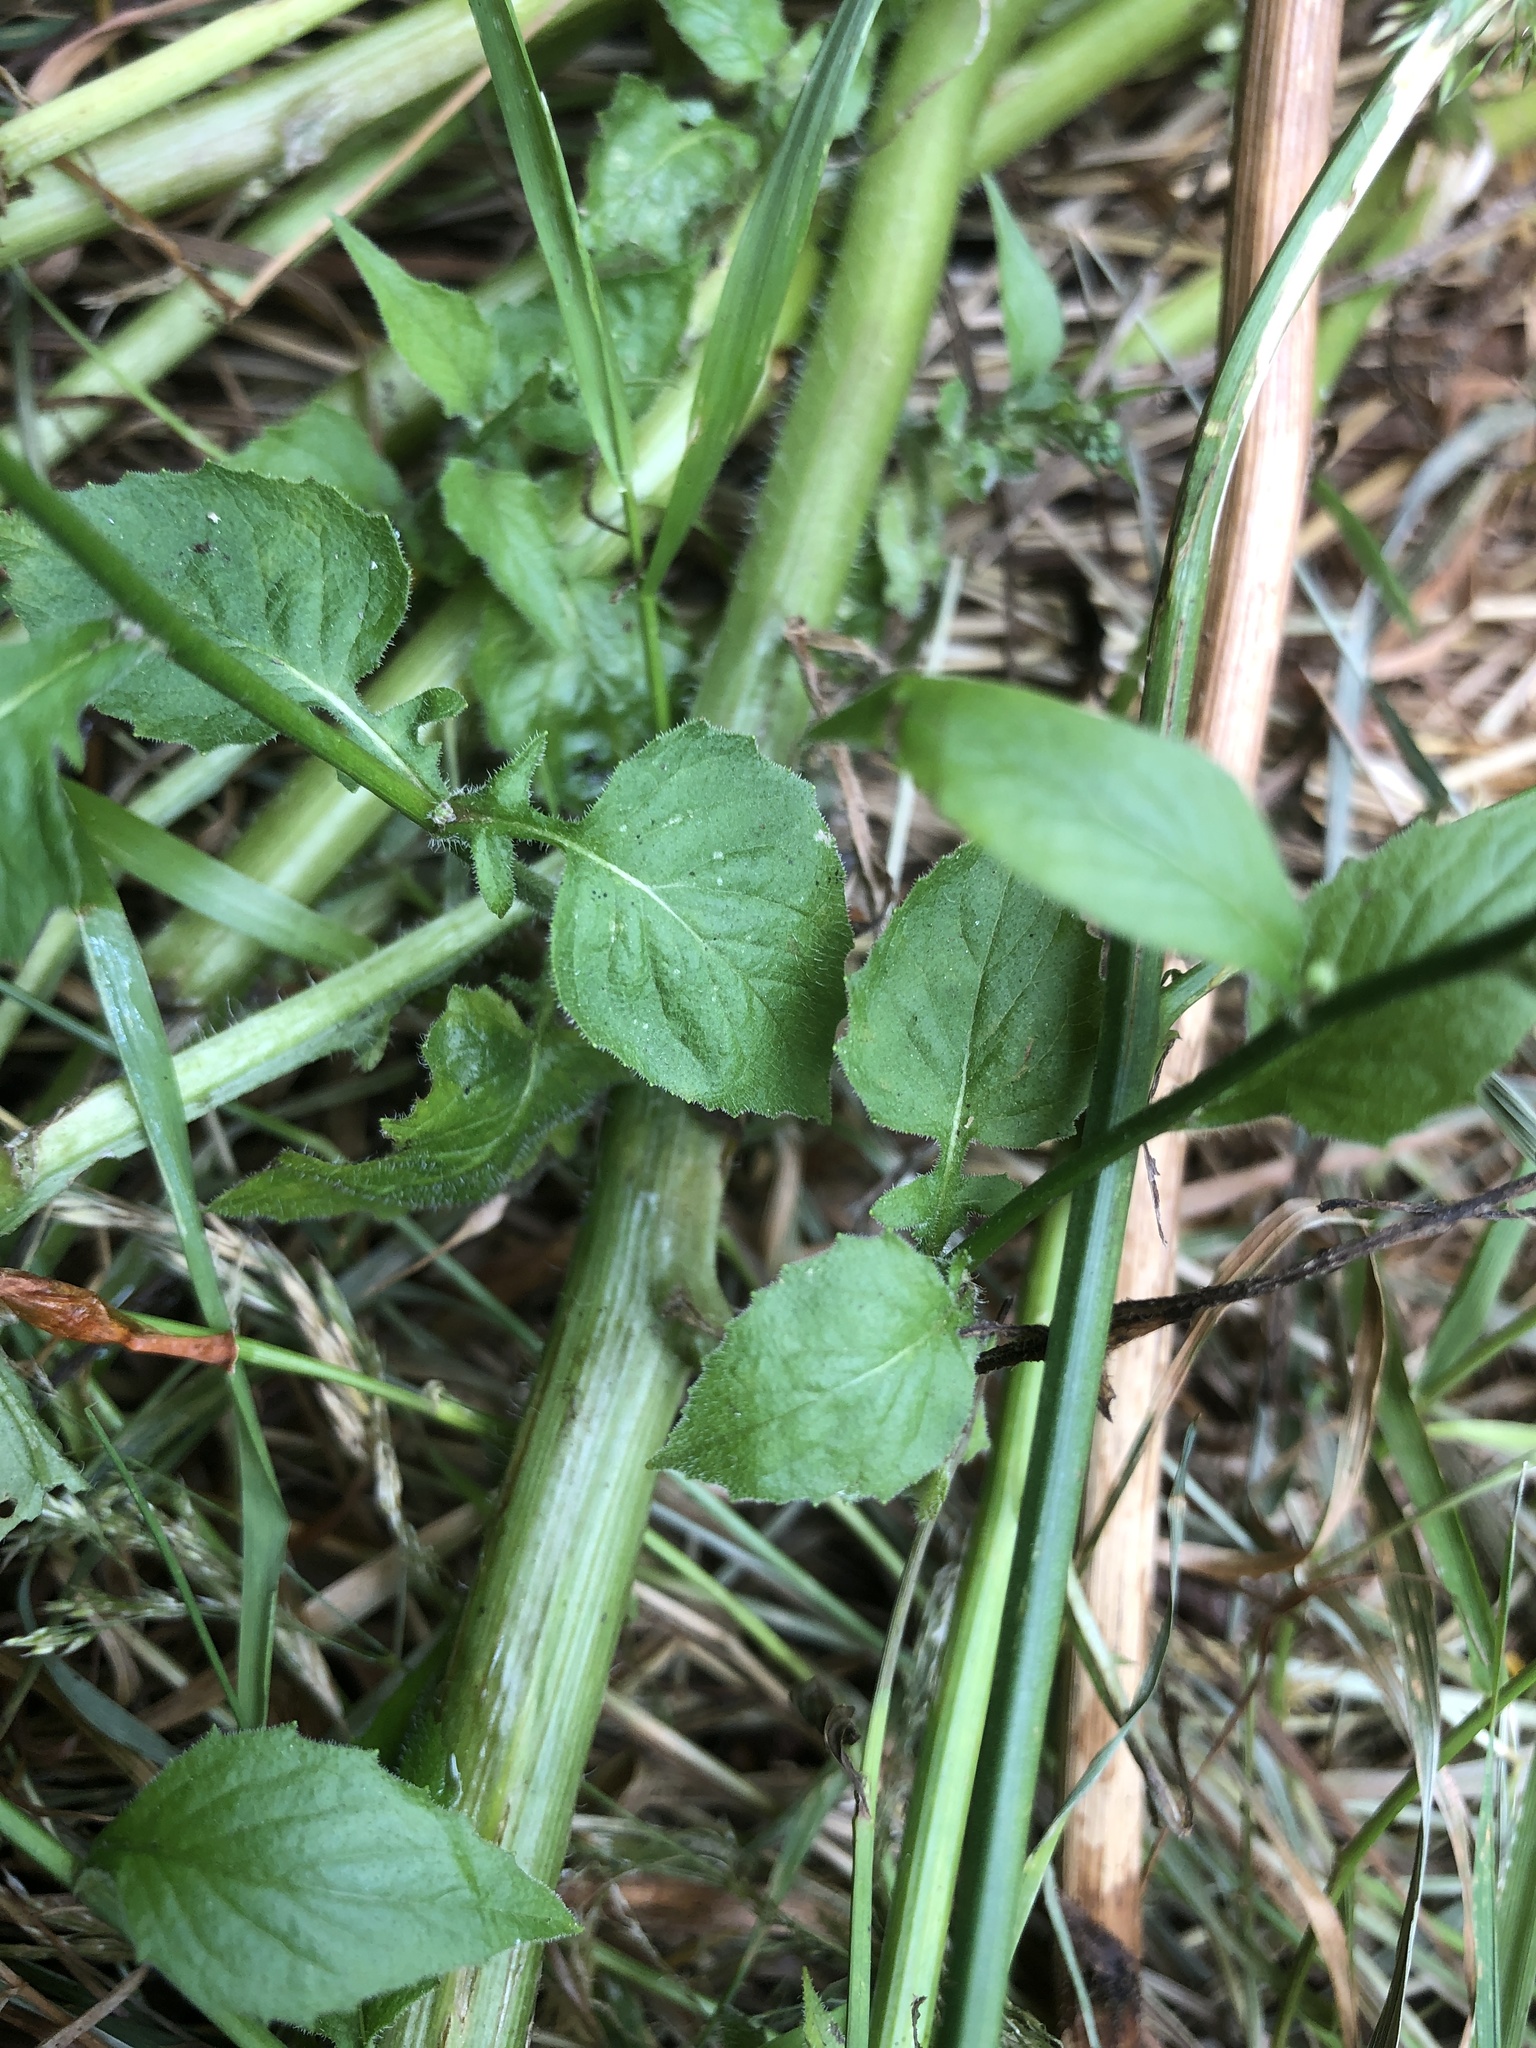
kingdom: Plantae
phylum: Tracheophyta
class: Magnoliopsida
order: Asterales
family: Asteraceae
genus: Lapsana
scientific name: Lapsana communis
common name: Nipplewort
